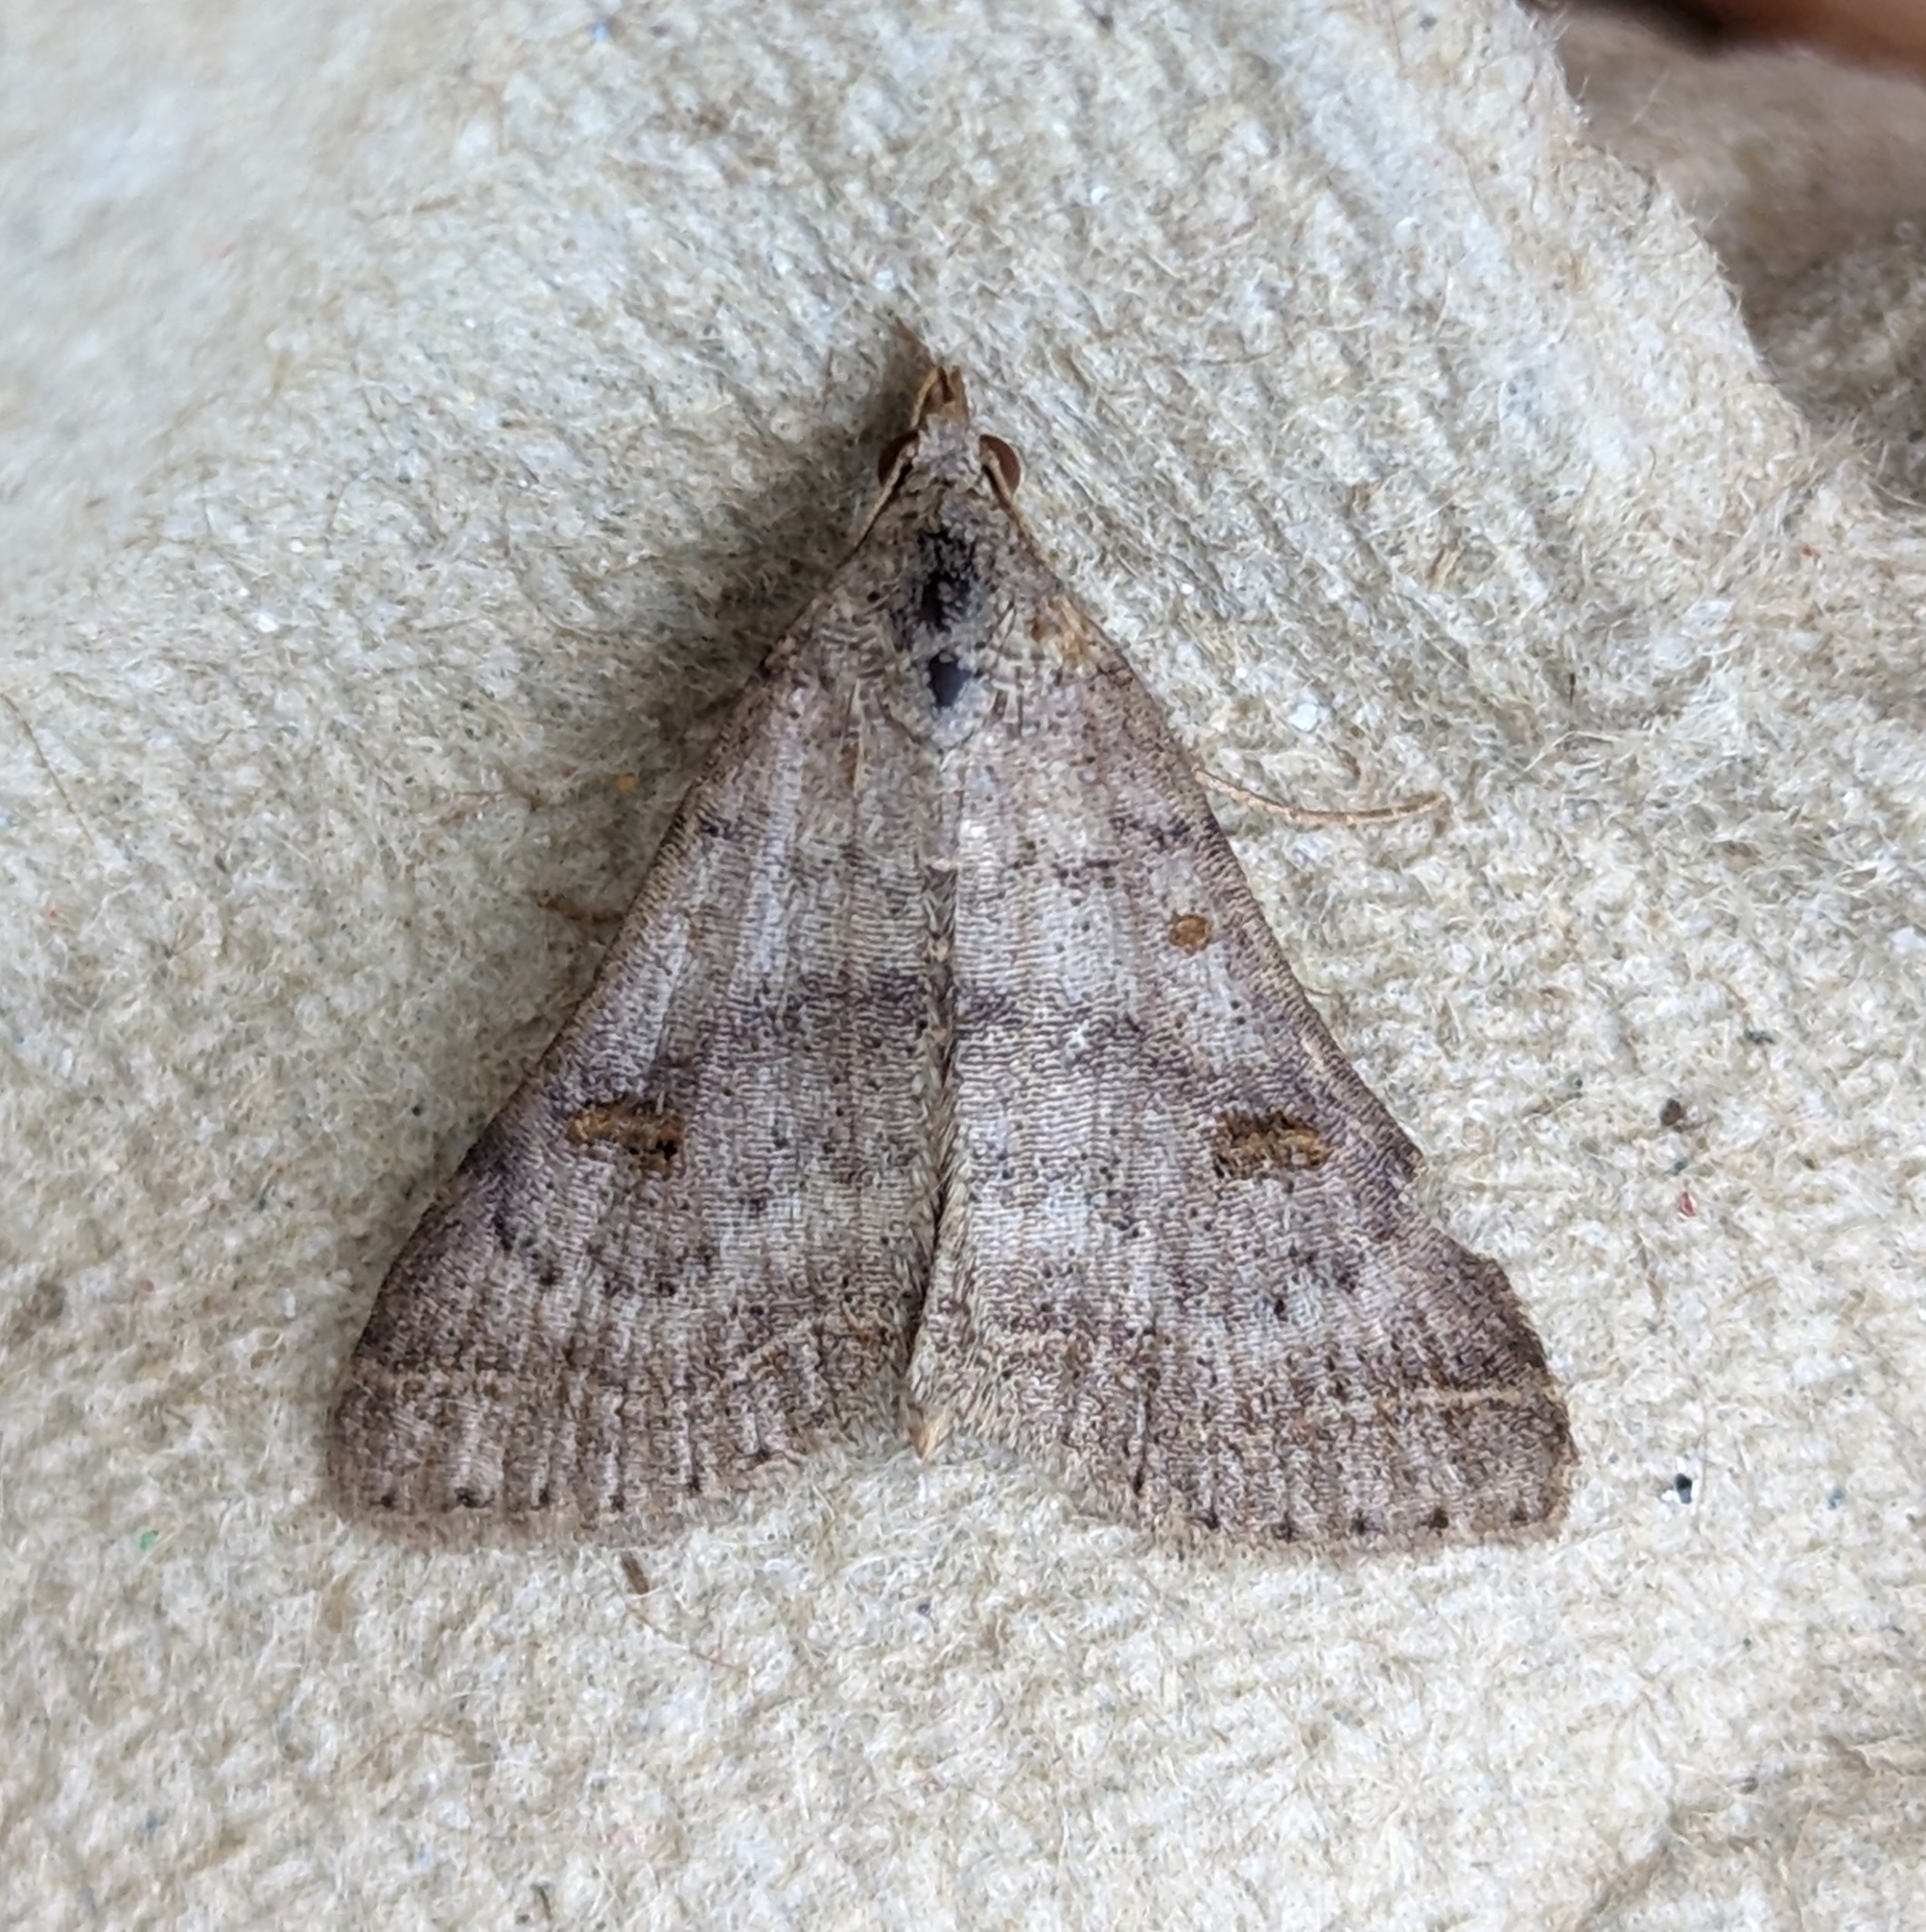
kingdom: Animalia
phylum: Arthropoda
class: Insecta
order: Lepidoptera
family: Erebidae
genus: Bleptina
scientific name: Bleptina caradrinalis
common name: Bent-winged owlet
